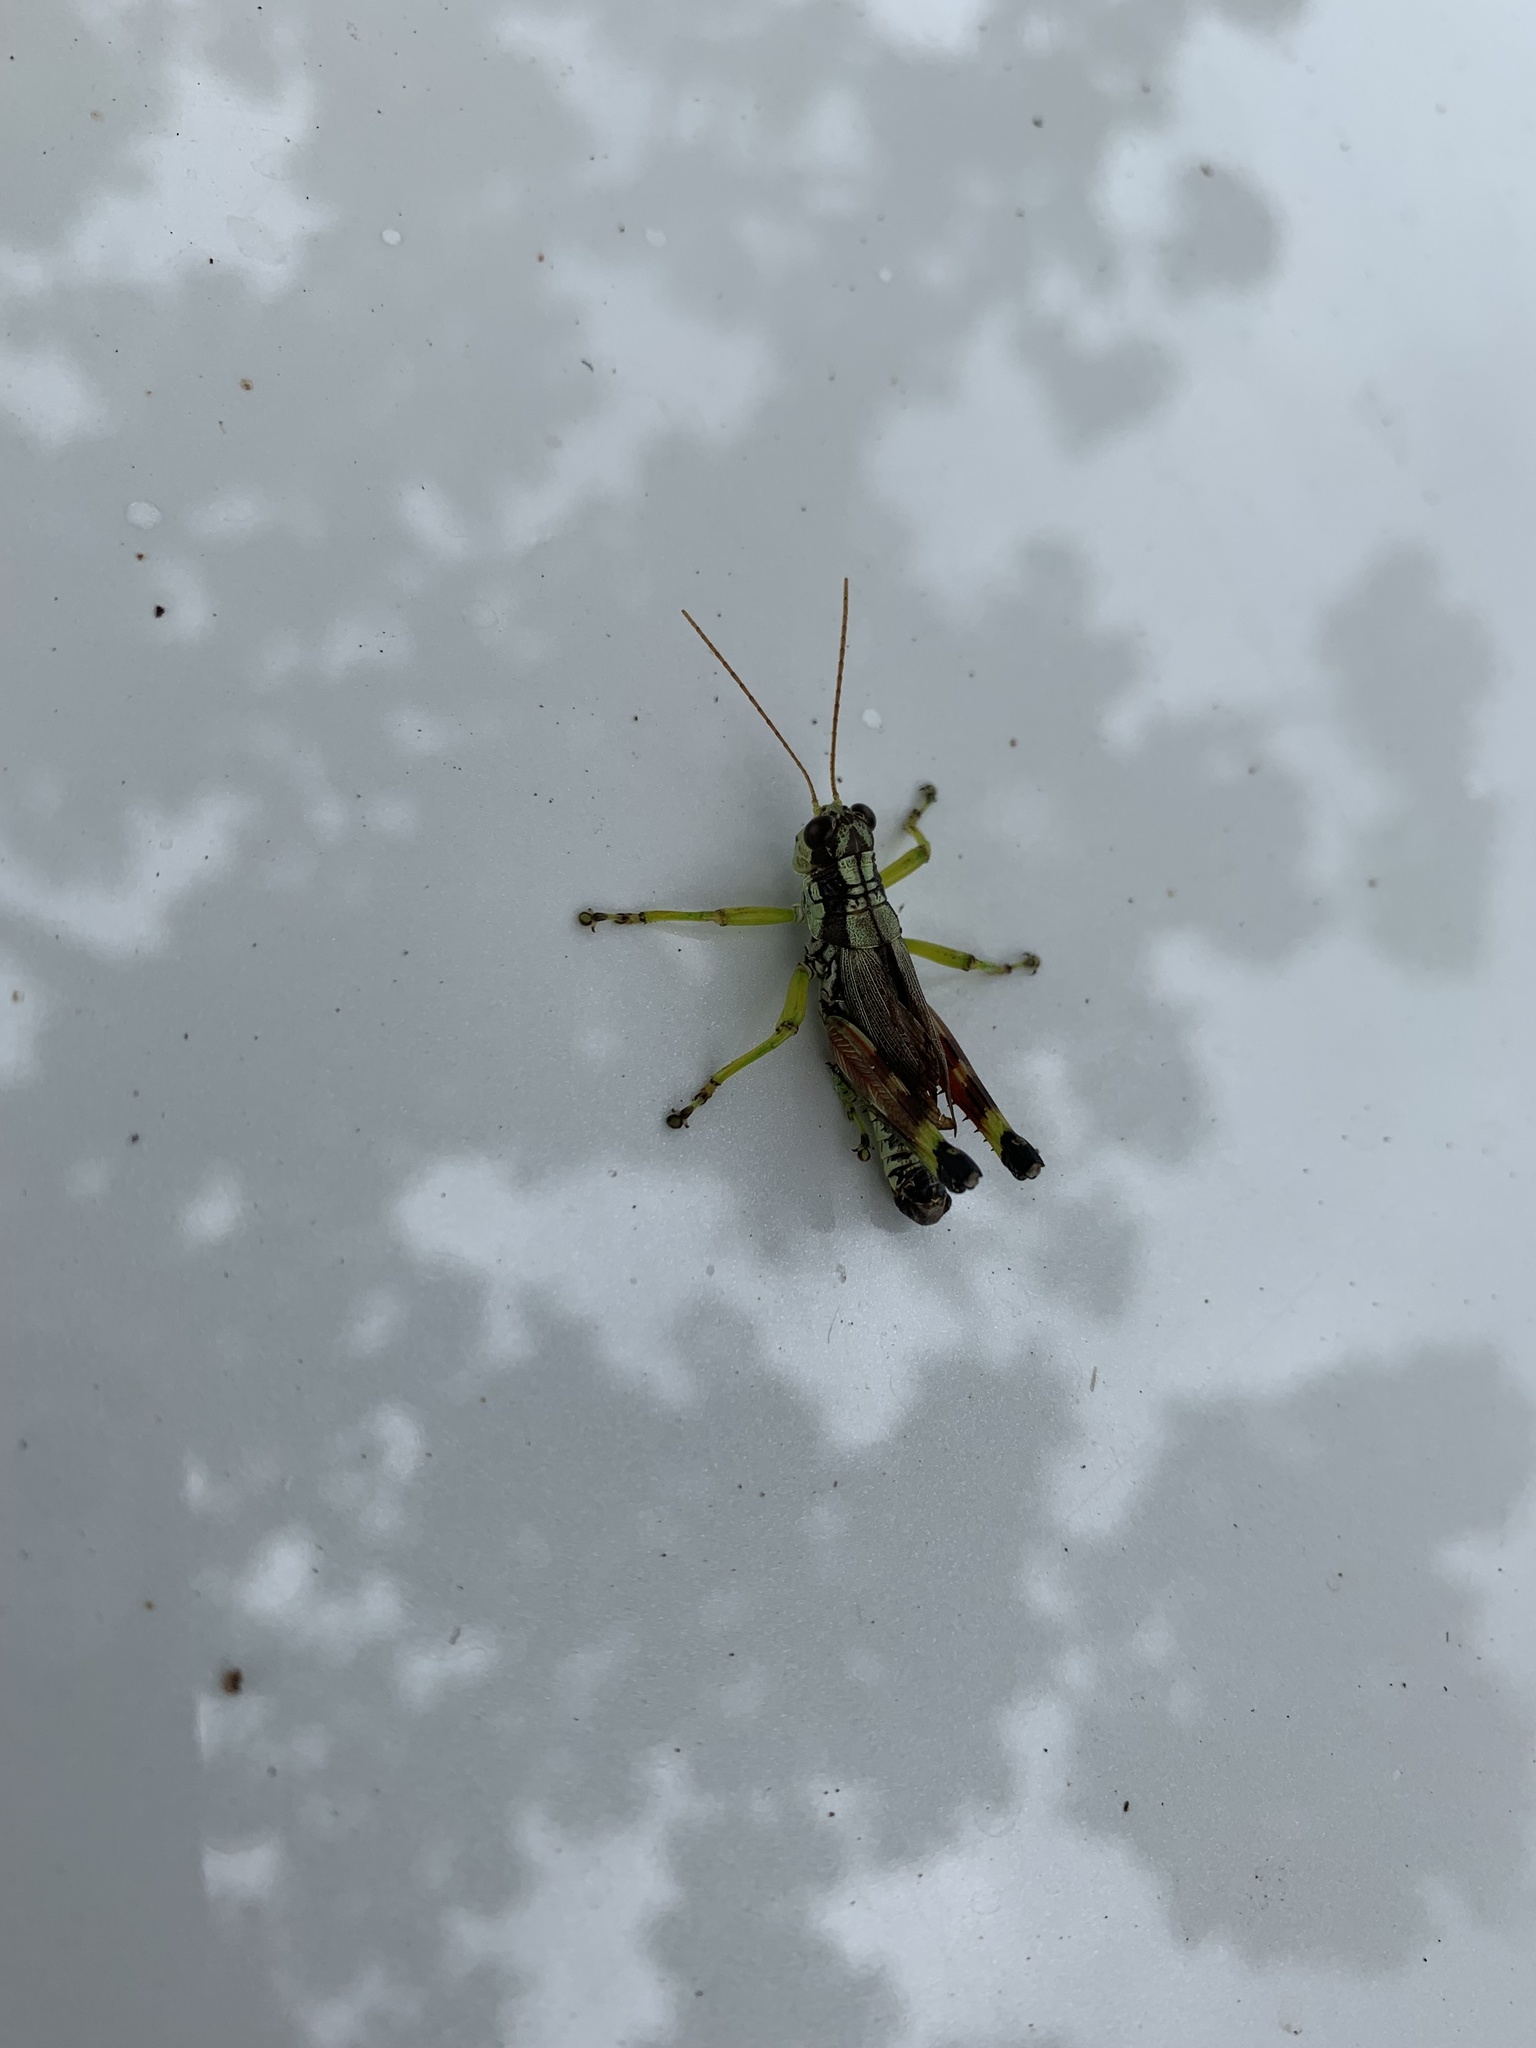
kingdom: Animalia
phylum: Arthropoda
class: Insecta
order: Orthoptera
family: Acrididae
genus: Dendrotettix
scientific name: Dendrotettix quercus
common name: Post oak grasshopper
